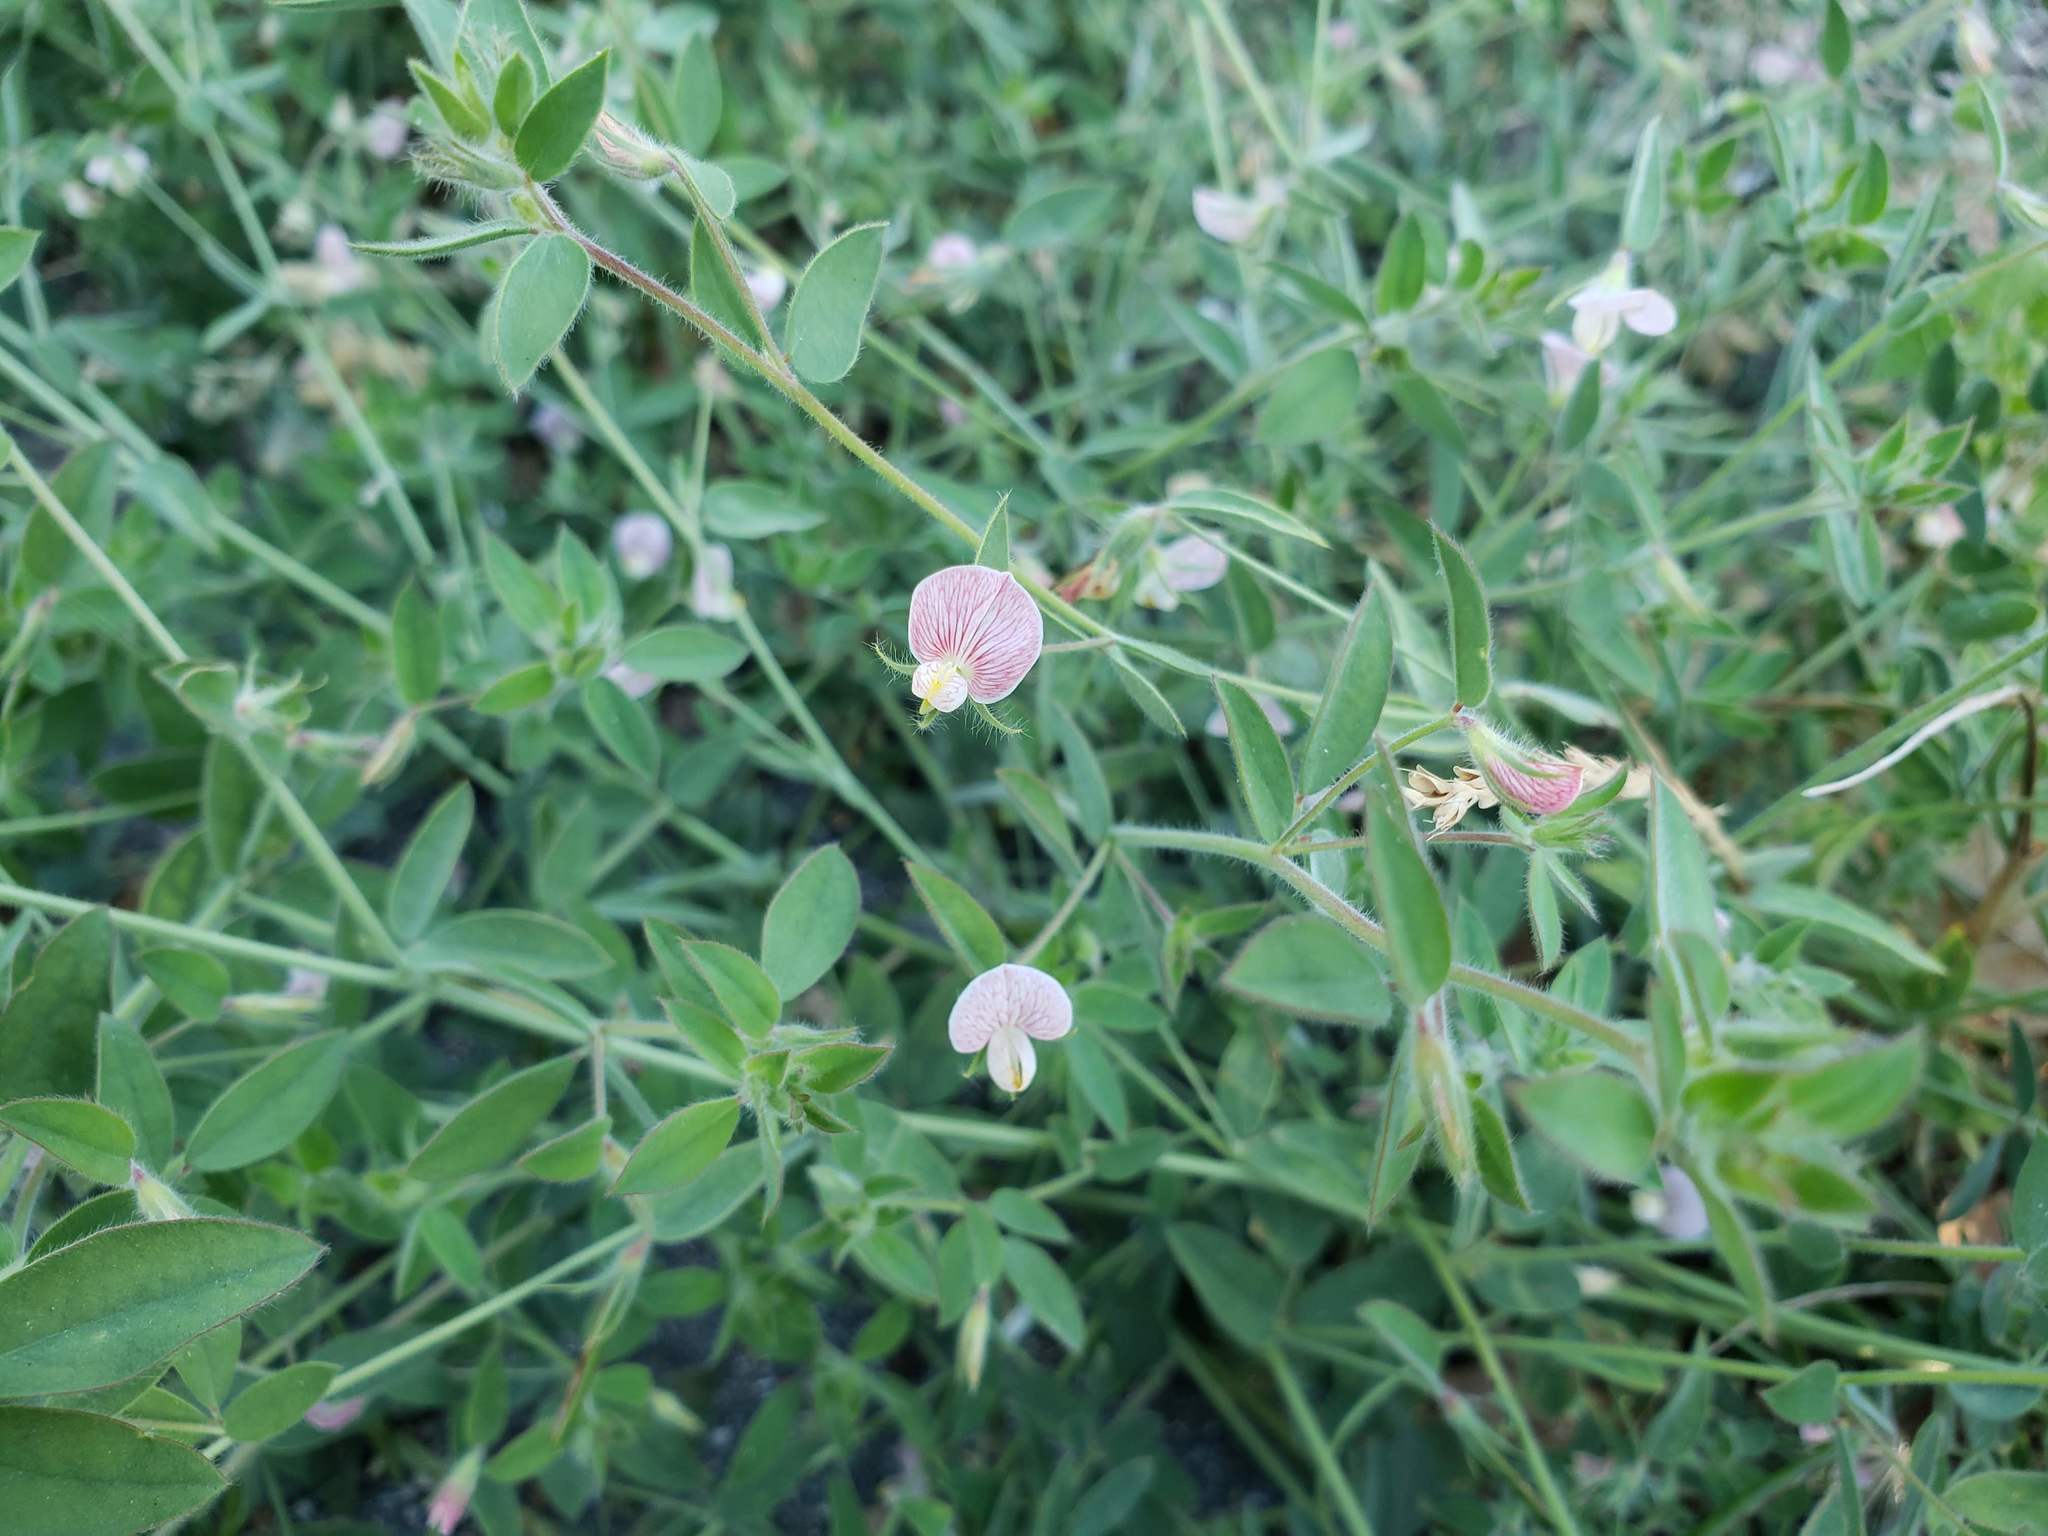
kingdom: Plantae
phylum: Tracheophyta
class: Magnoliopsida
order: Fabales
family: Fabaceae
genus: Acmispon
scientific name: Acmispon americanus
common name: American bird's-foot trefoil
